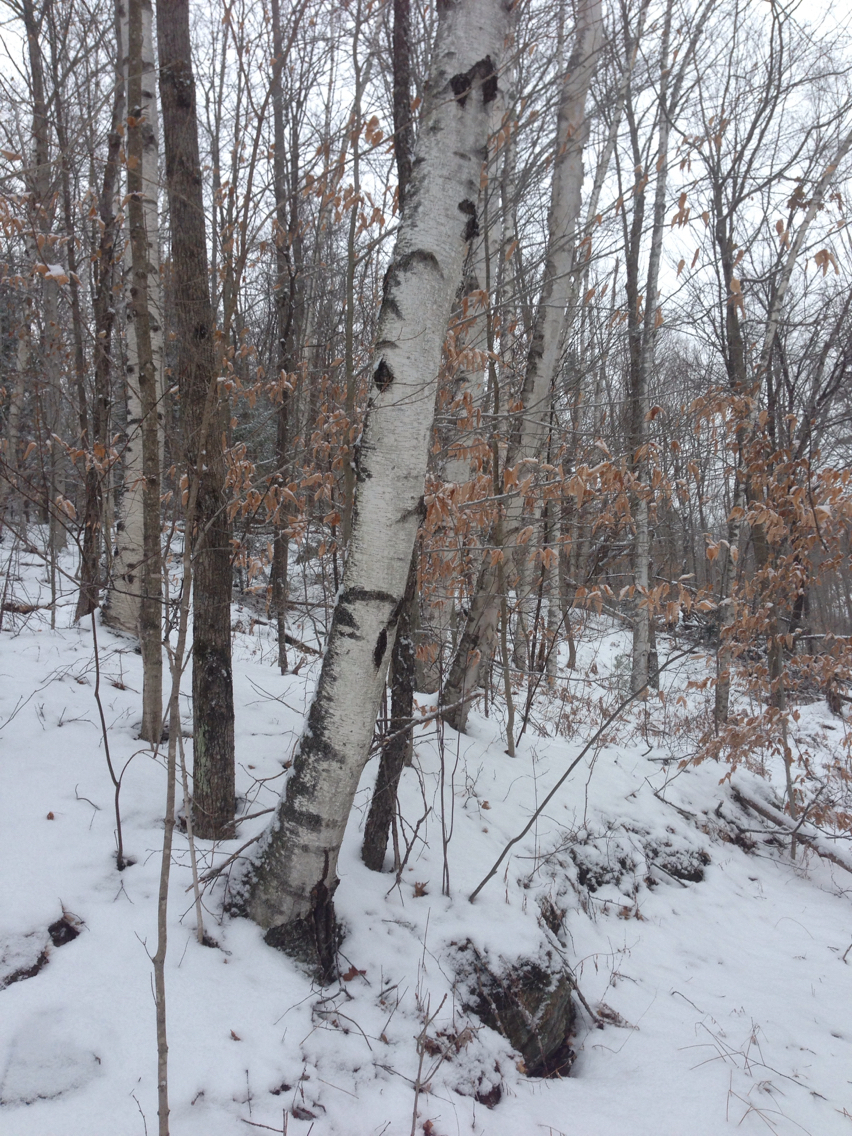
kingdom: Plantae
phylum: Tracheophyta
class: Magnoliopsida
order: Fagales
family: Betulaceae
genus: Betula
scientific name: Betula populifolia
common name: Fire birch
